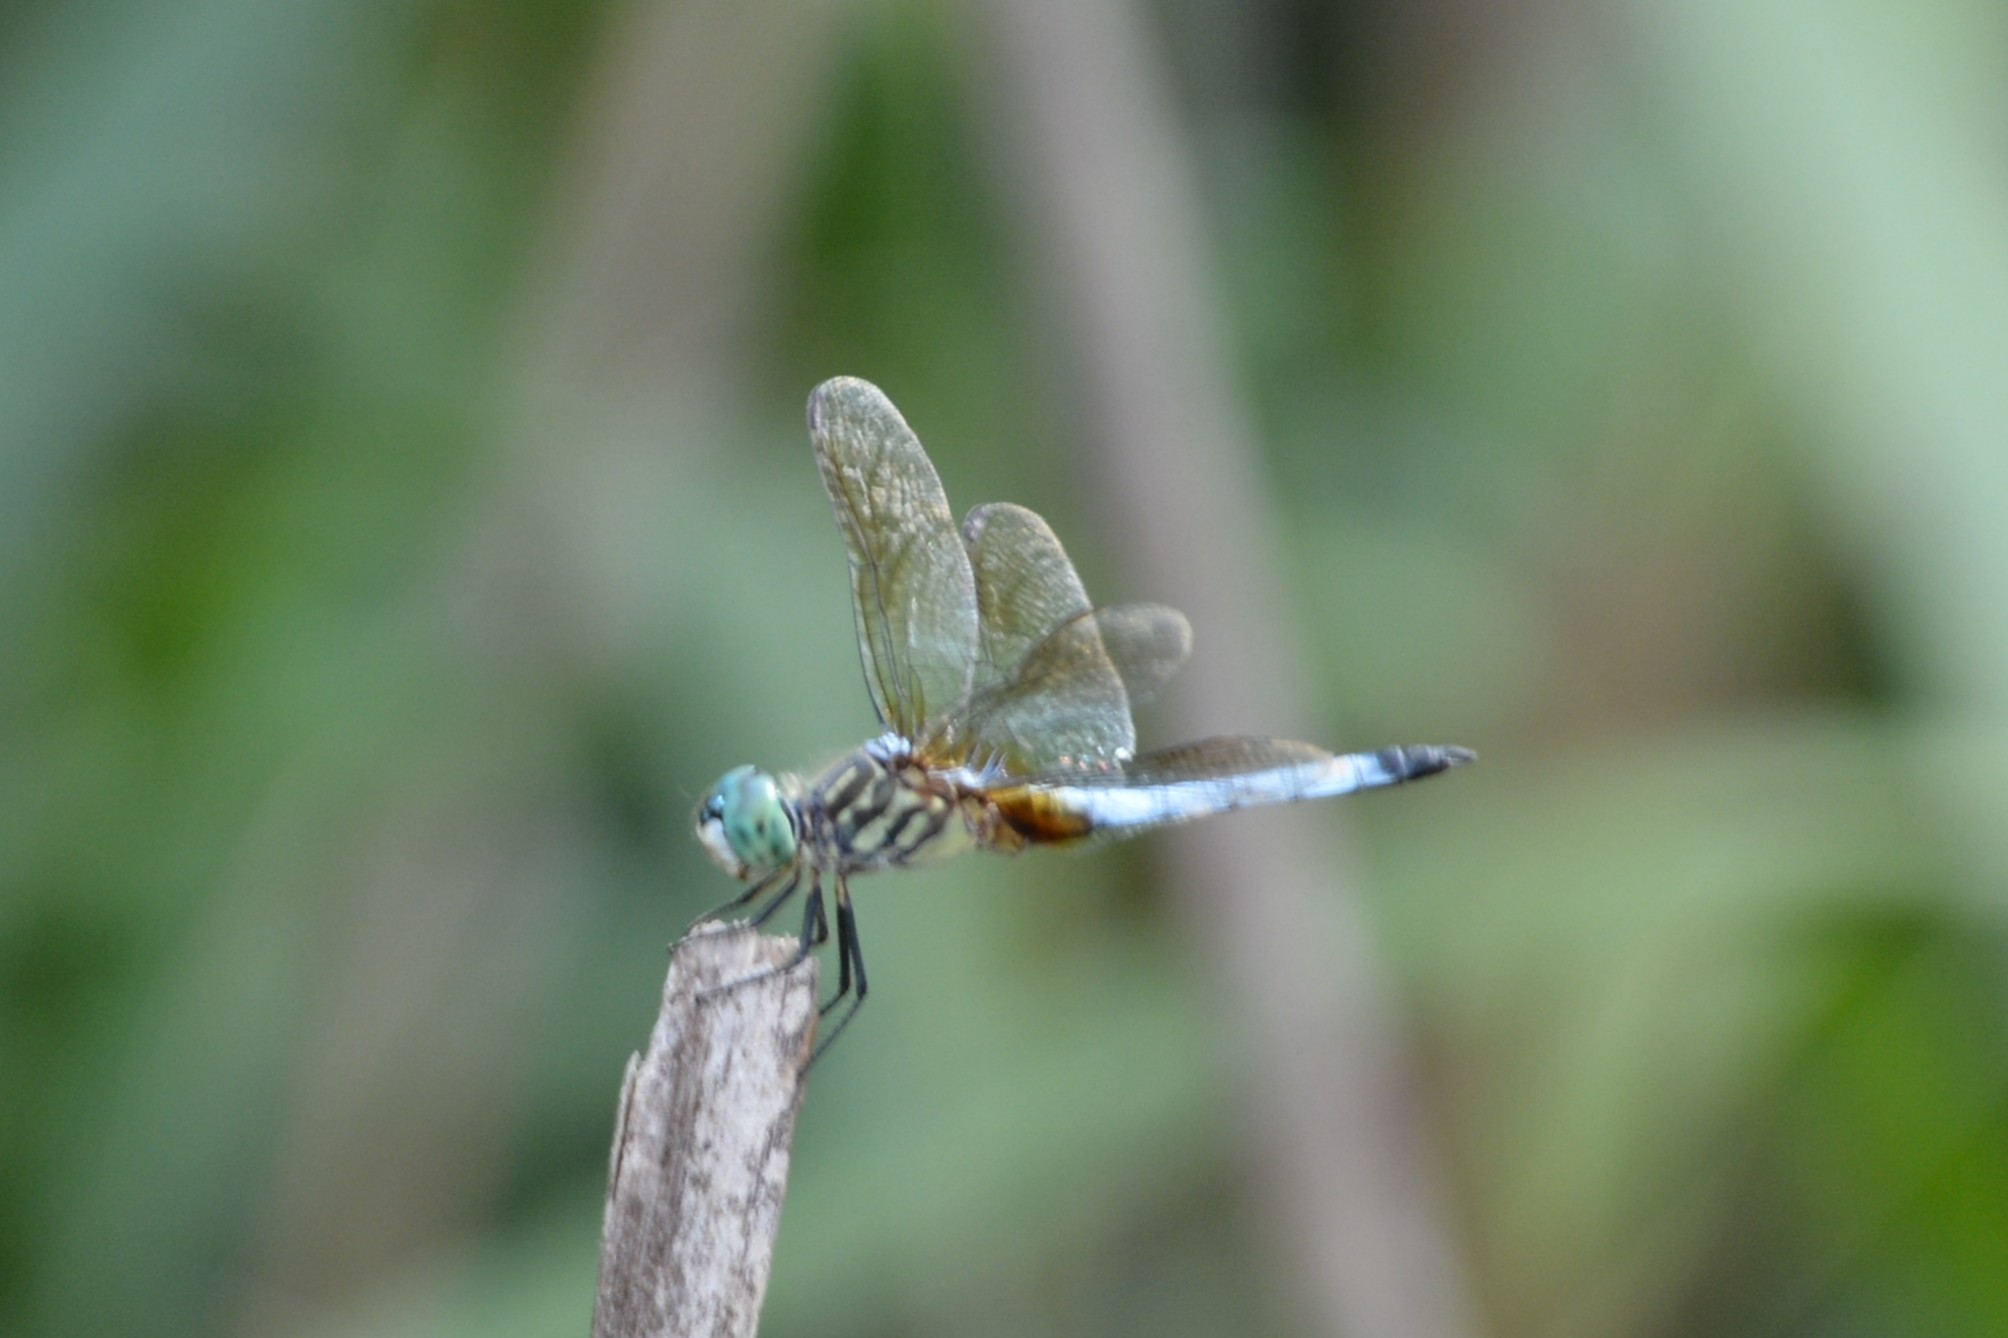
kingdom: Animalia
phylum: Arthropoda
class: Insecta
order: Odonata
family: Libellulidae
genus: Pachydiplax
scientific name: Pachydiplax longipennis
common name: Blue dasher
